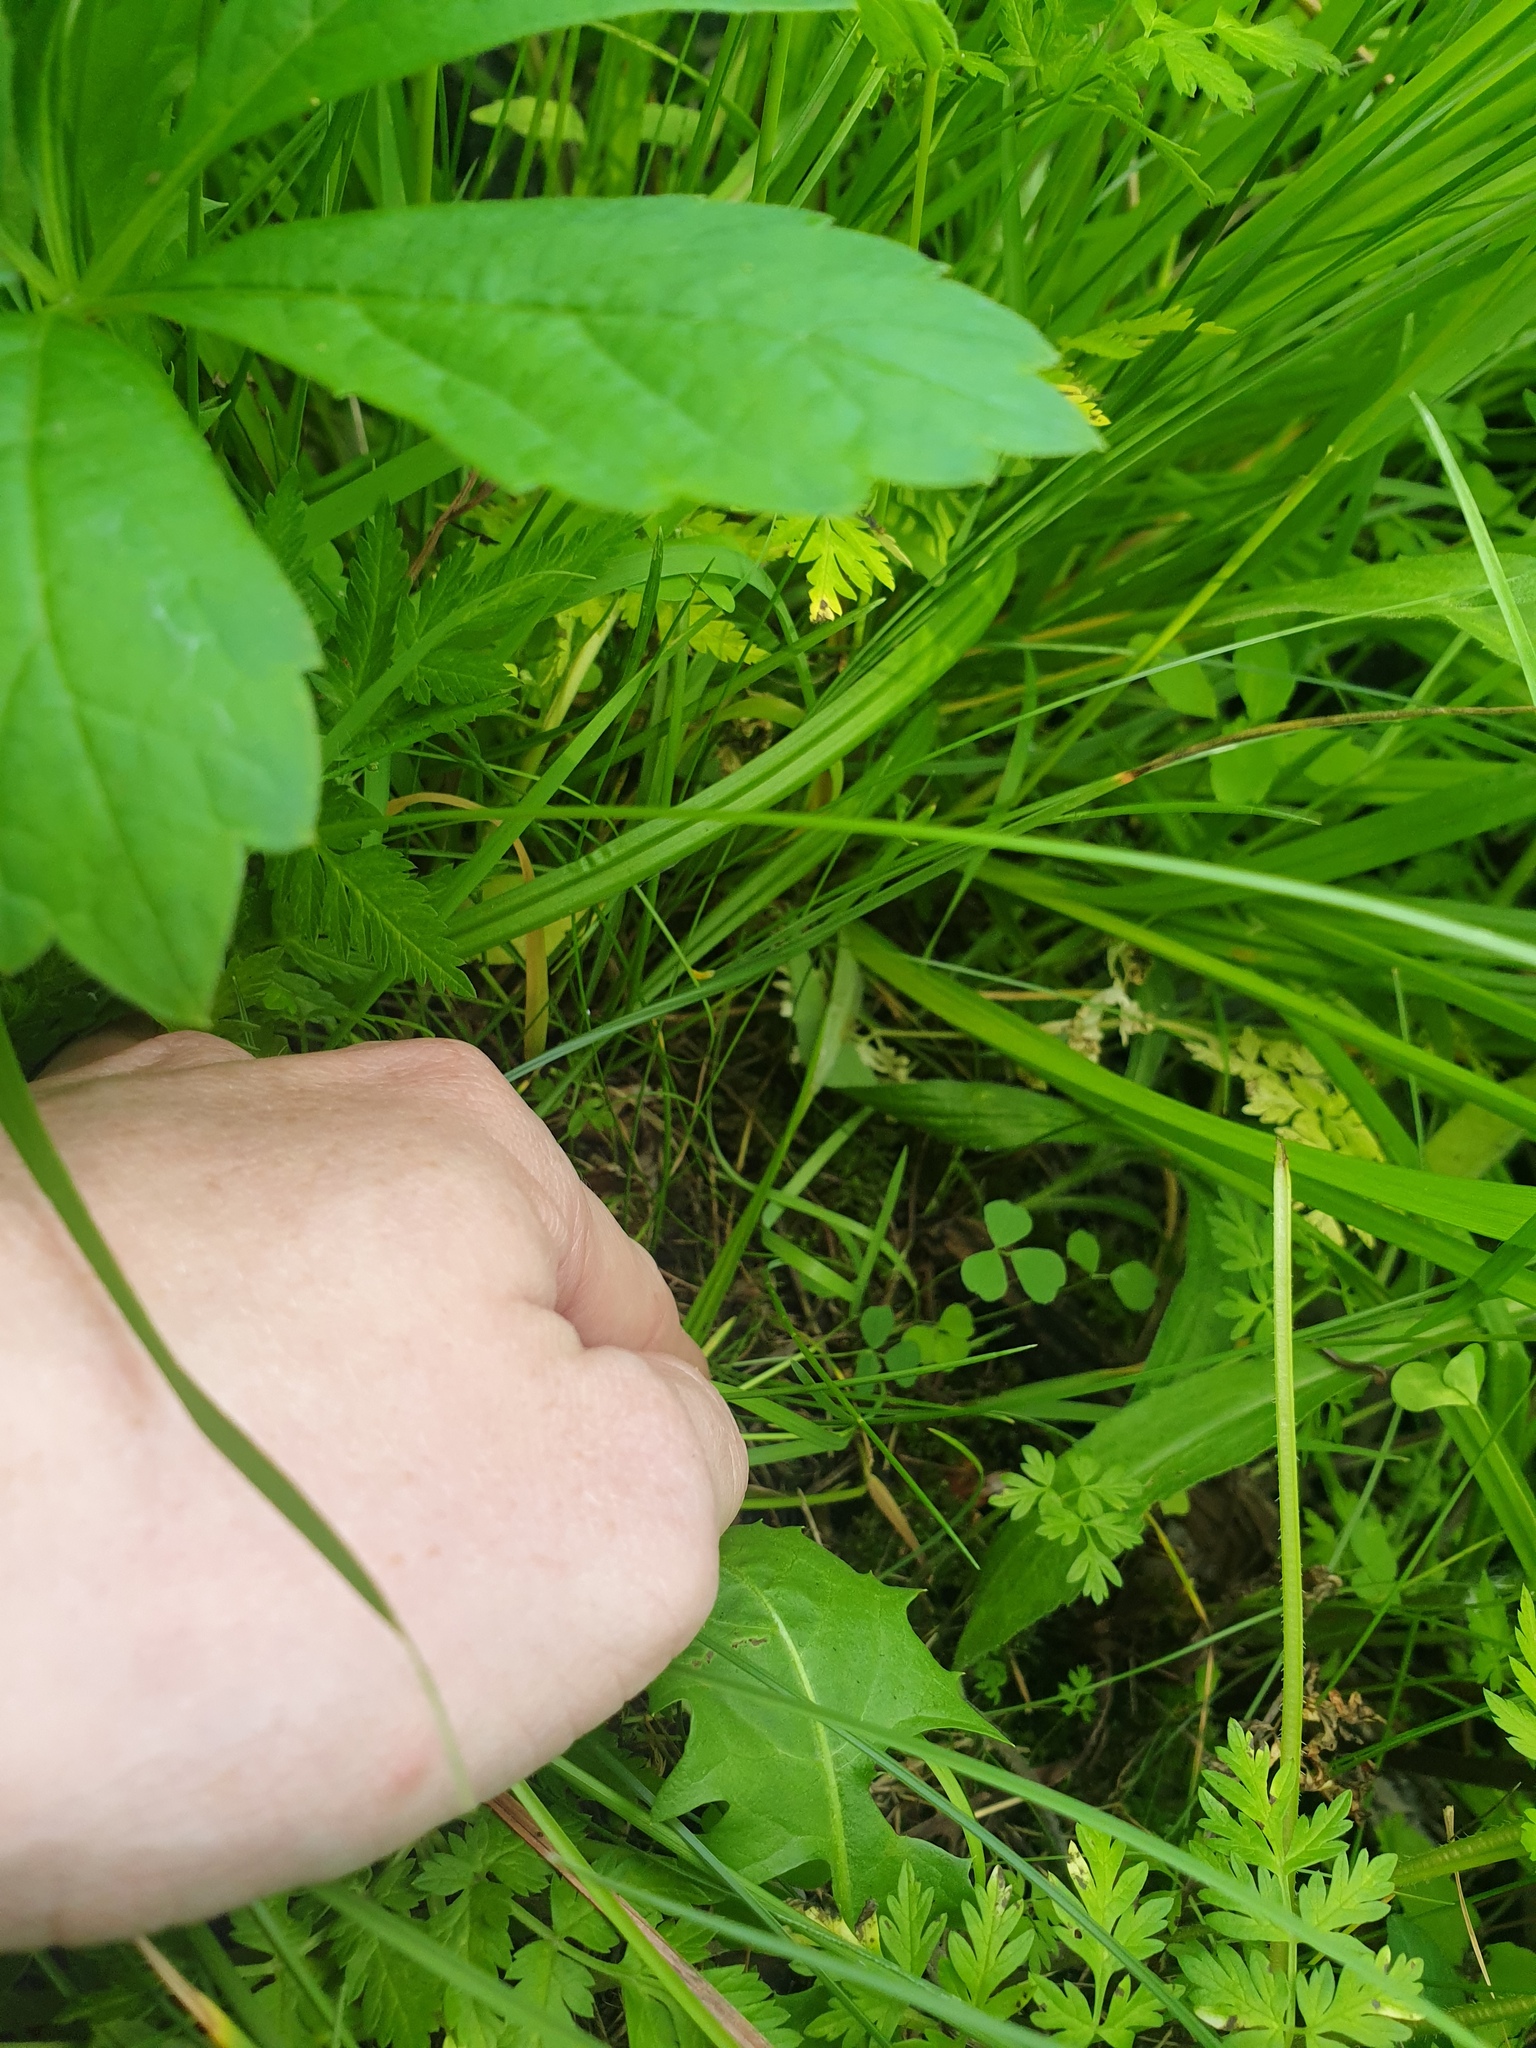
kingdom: Plantae
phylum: Tracheophyta
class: Liliopsida
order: Poales
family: Cyperaceae
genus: Carex
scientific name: Carex stipata
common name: Awl-fruited sedge
